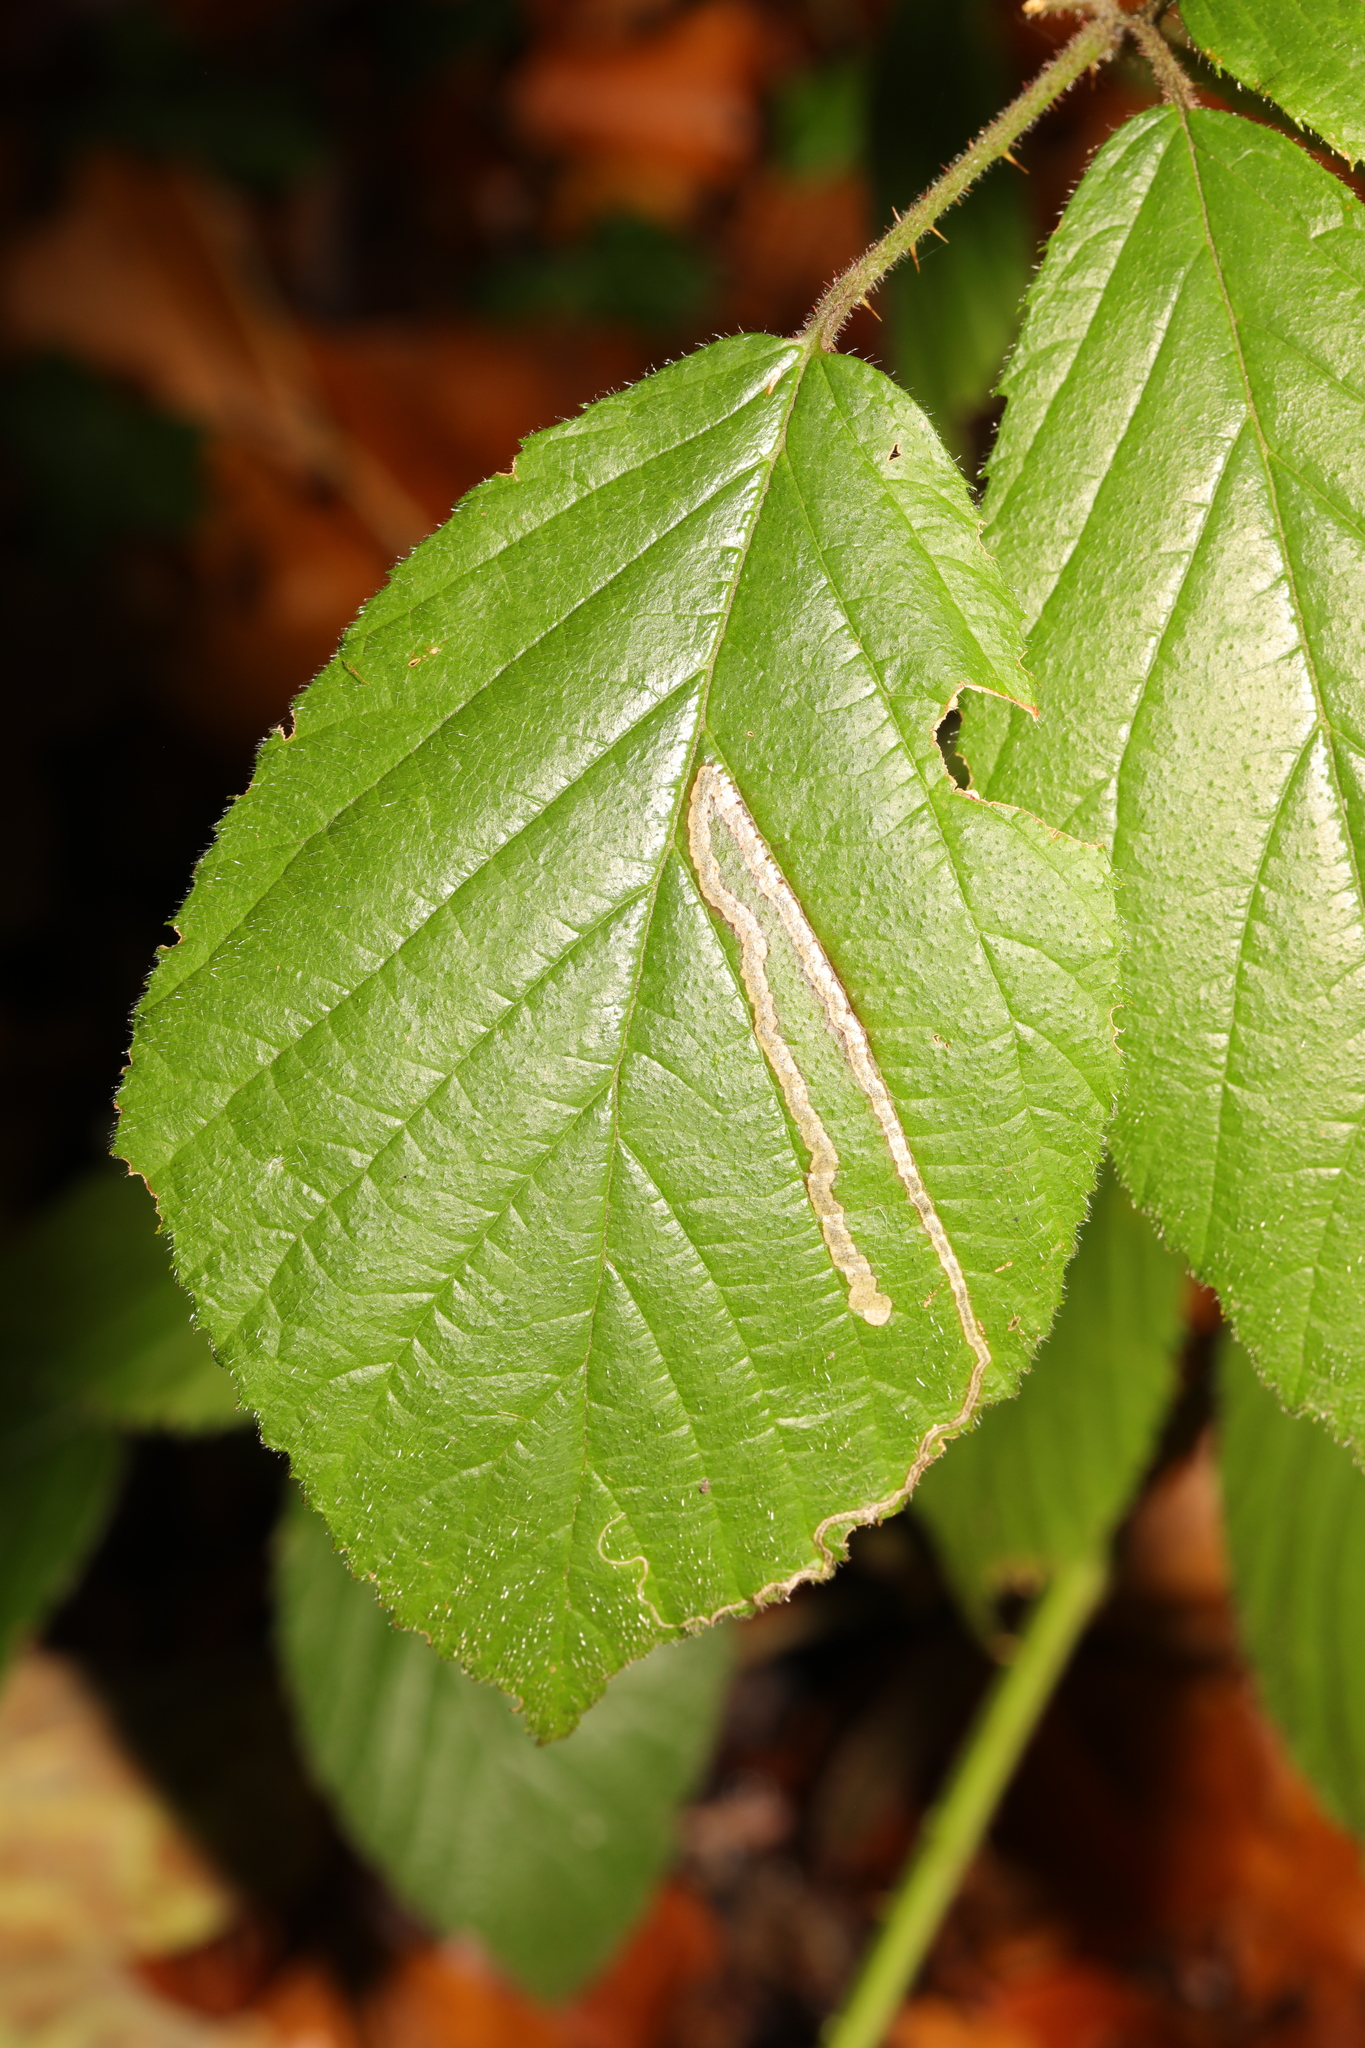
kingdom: Animalia
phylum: Arthropoda
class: Insecta
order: Lepidoptera
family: Nepticulidae
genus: Stigmella
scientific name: Stigmella aurella
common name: Golden pigmy
